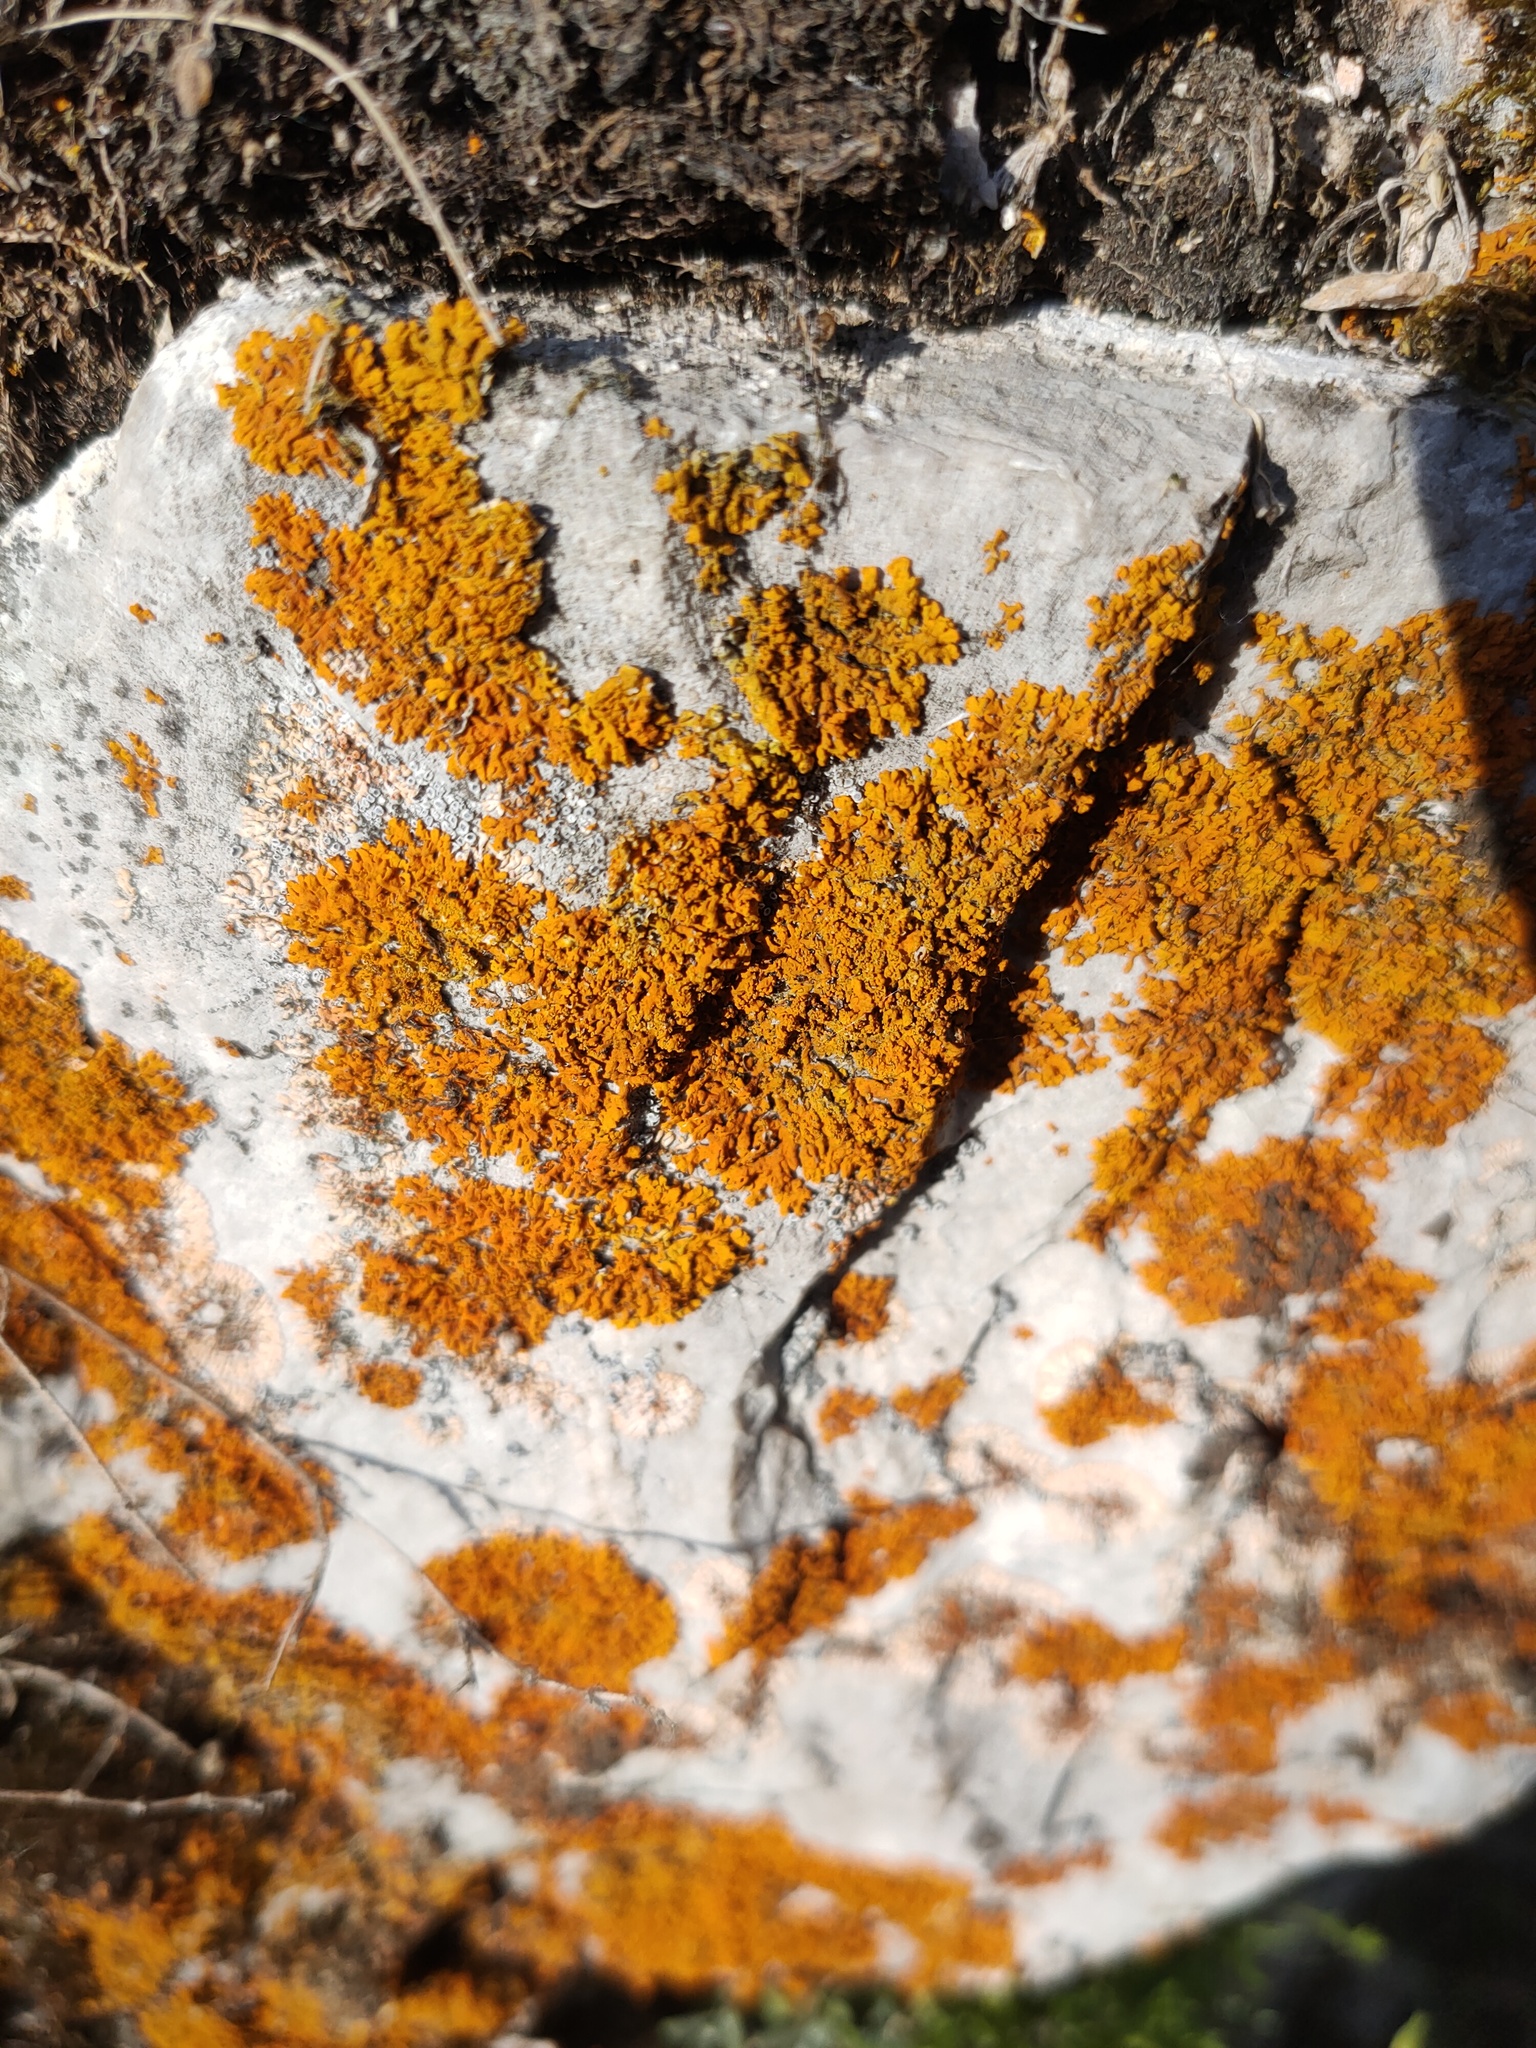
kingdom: Fungi
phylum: Ascomycota
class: Lecanoromycetes
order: Teloschistales
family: Teloschistaceae
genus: Xanthoria
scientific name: Xanthoria elegans
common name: Elegant sunburst lichen
